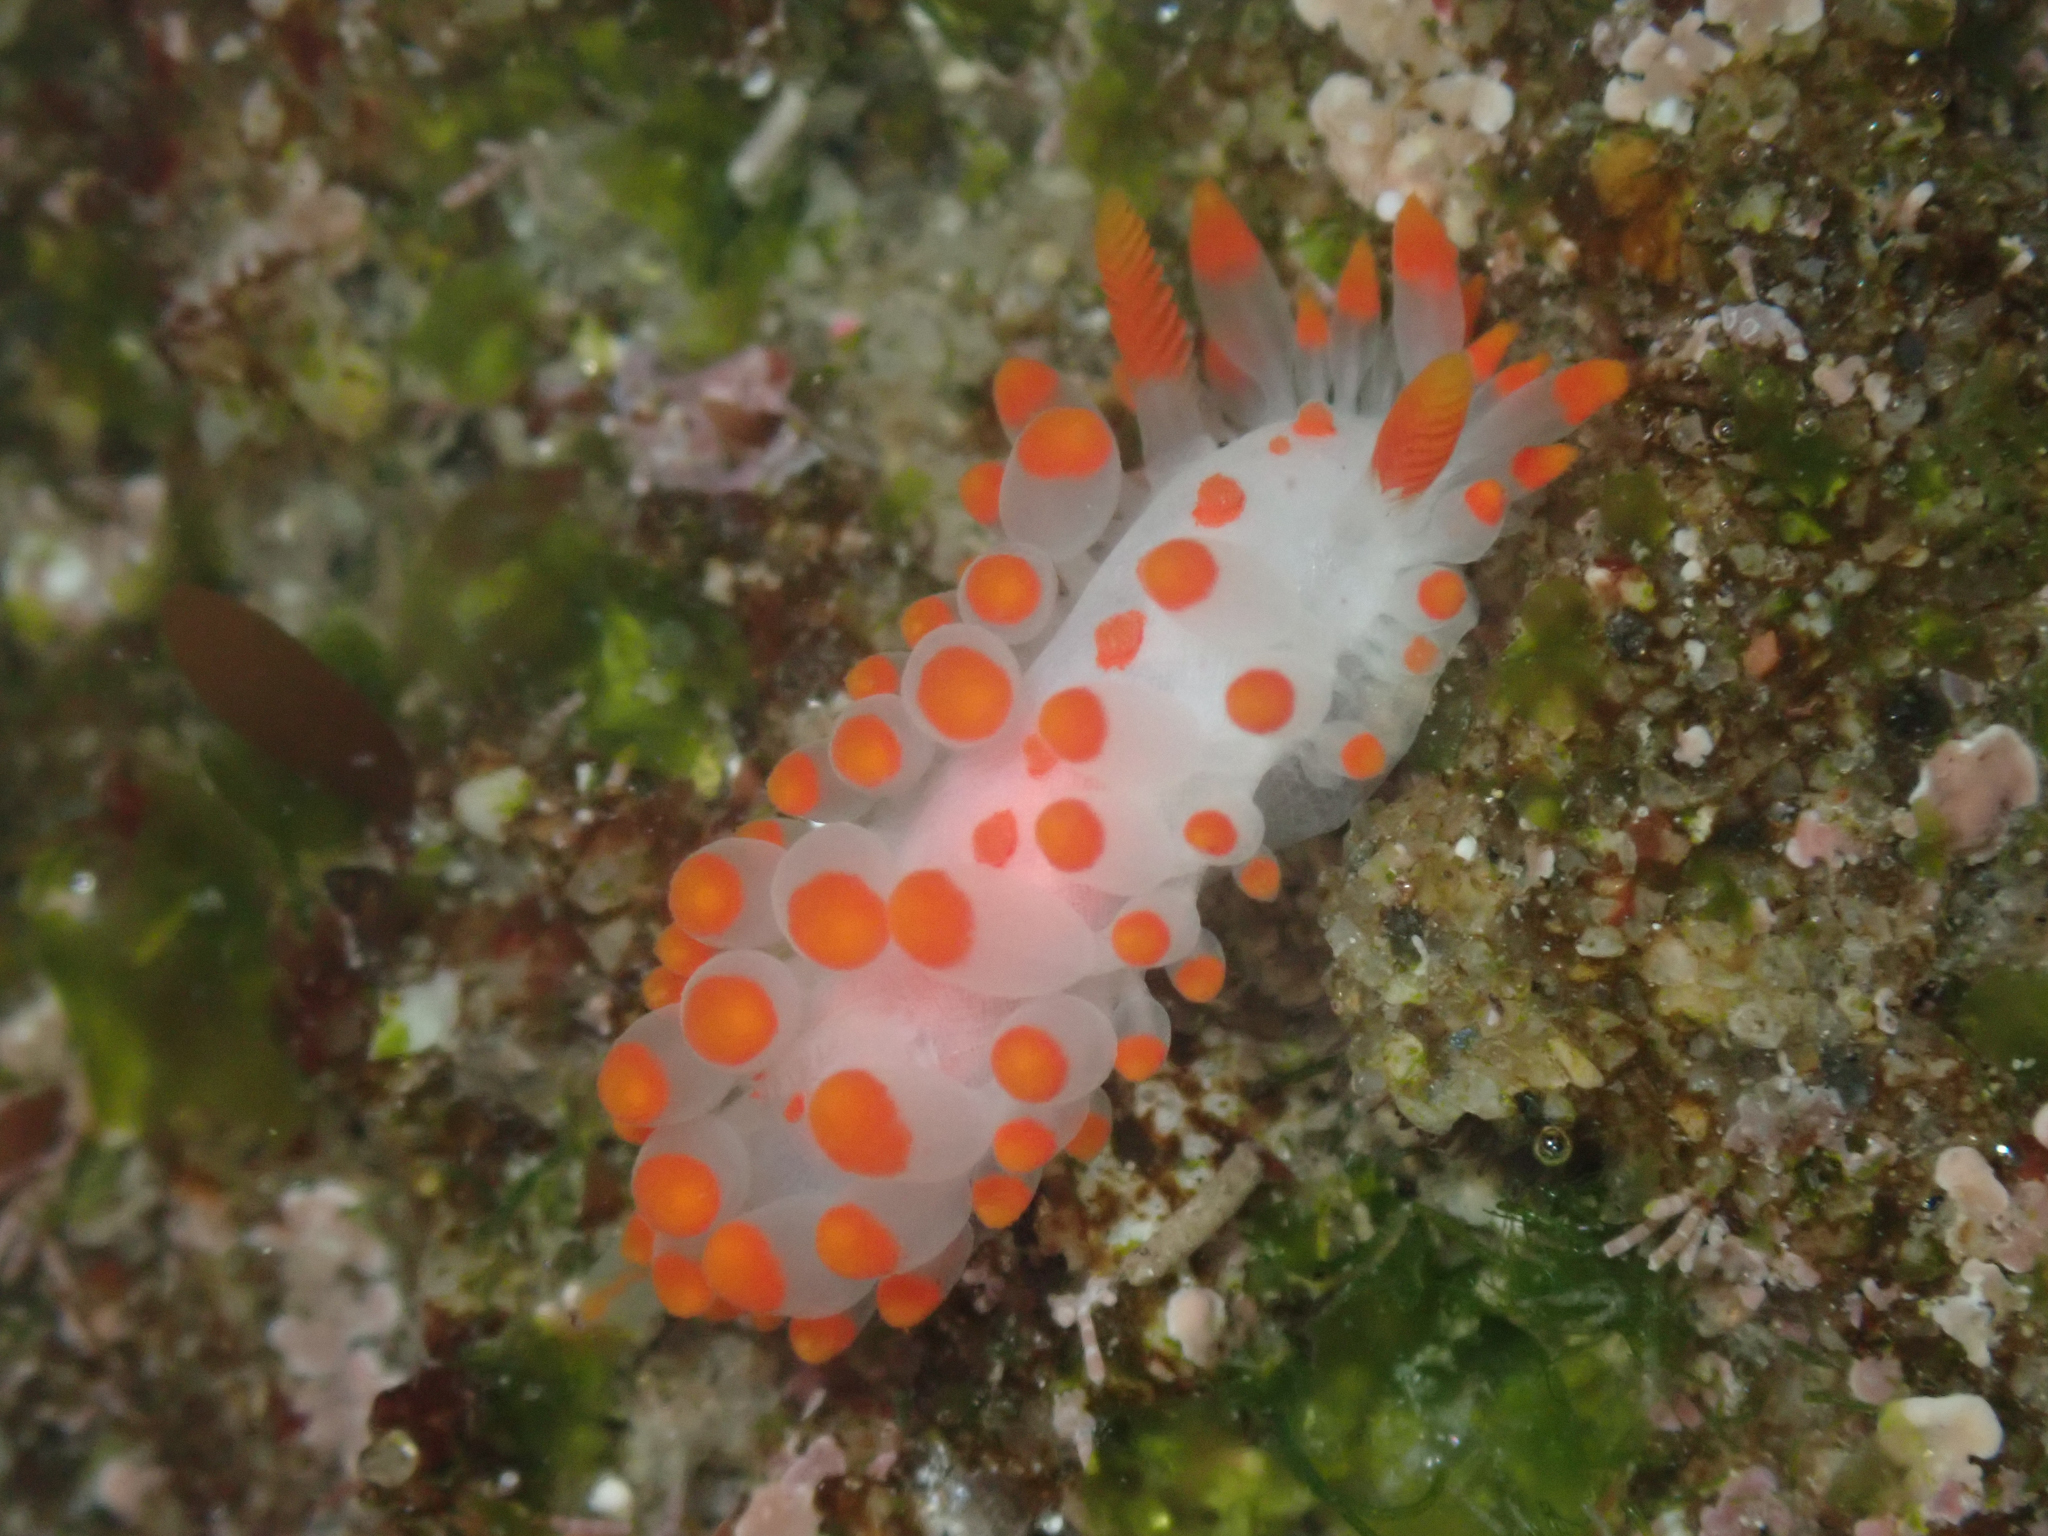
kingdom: Animalia
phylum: Mollusca
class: Gastropoda
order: Nudibranchia
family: Polyceridae
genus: Limacia
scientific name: Limacia mcdonaldi
